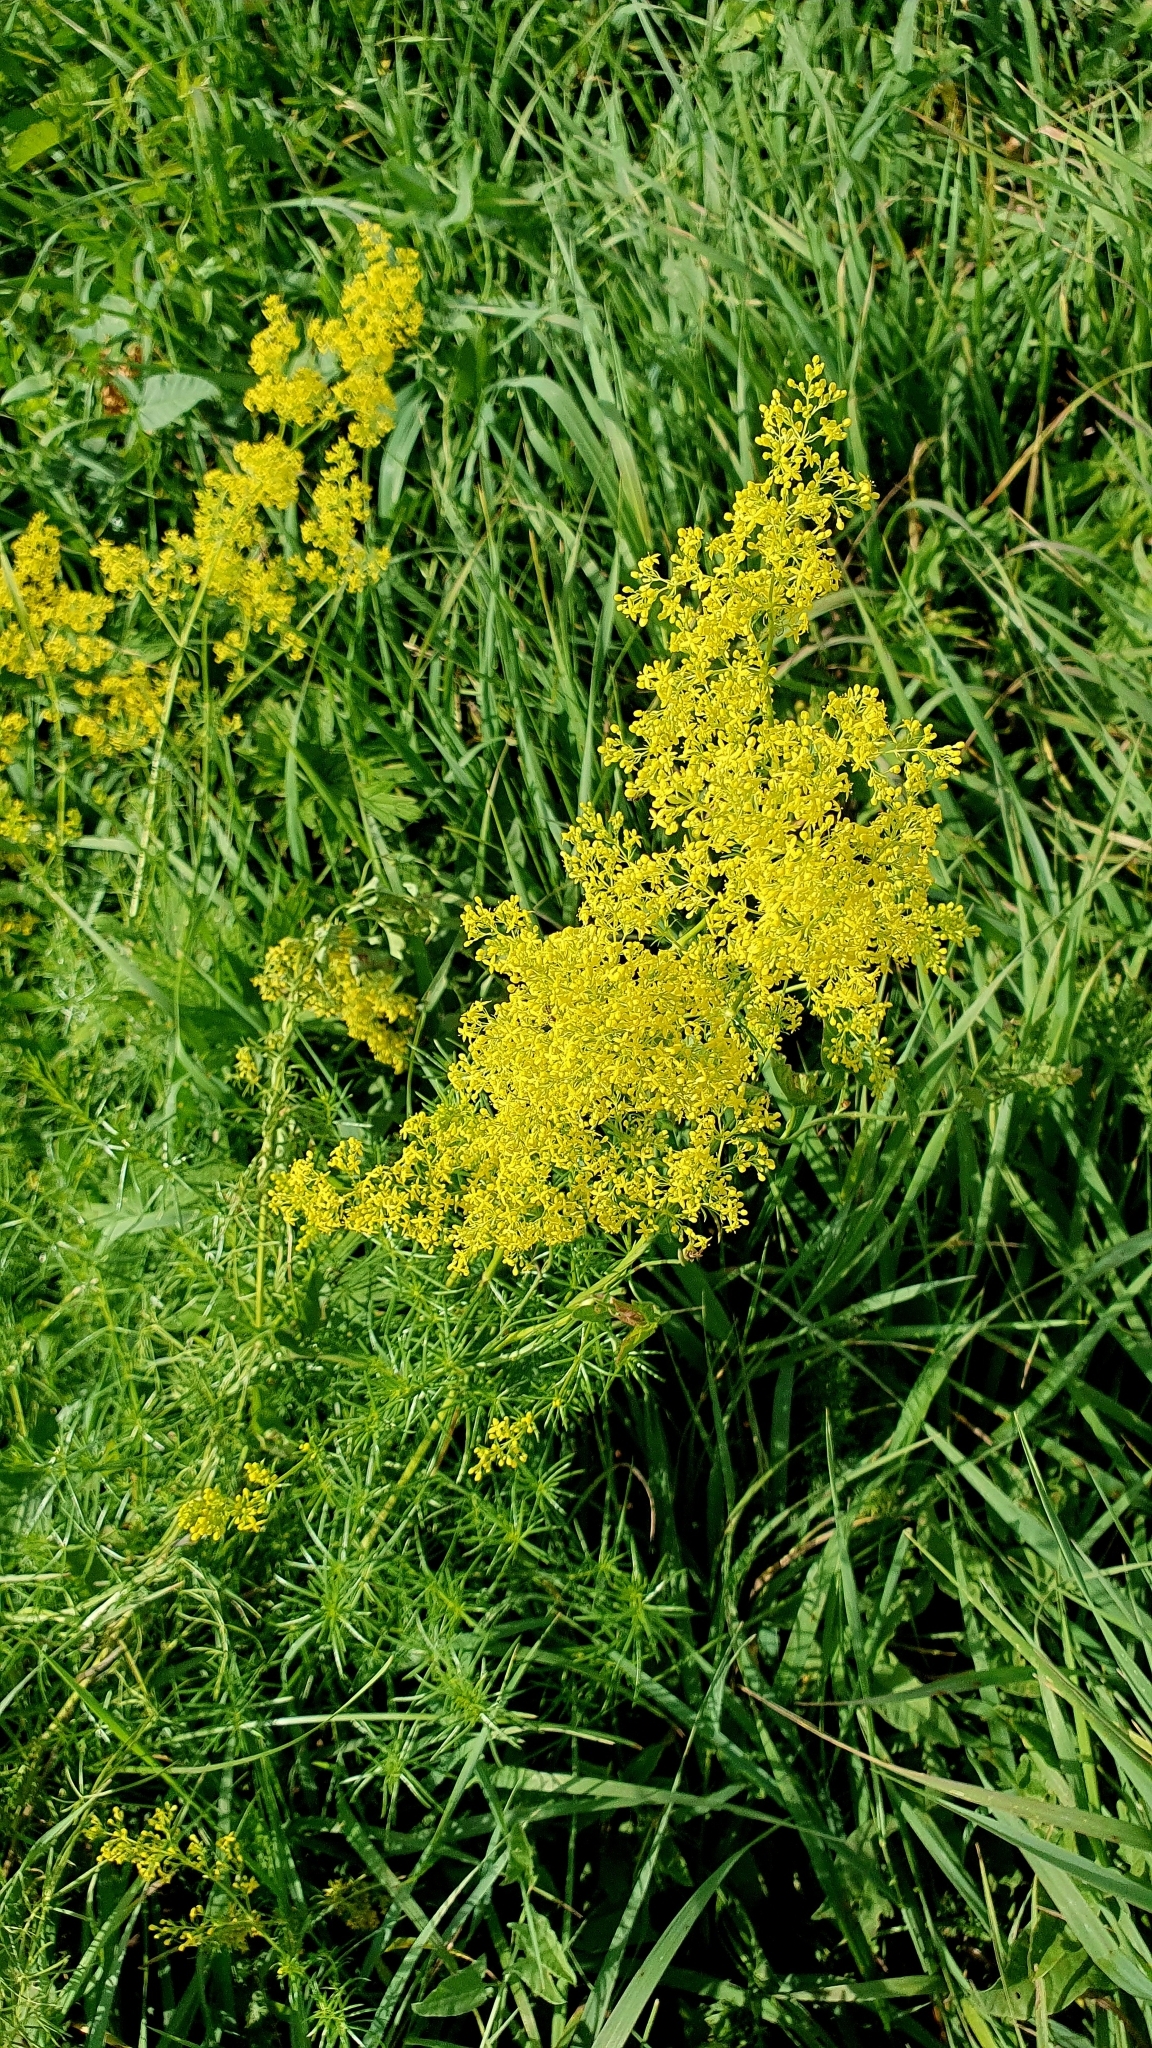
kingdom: Plantae
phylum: Tracheophyta
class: Magnoliopsida
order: Gentianales
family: Rubiaceae
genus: Galium
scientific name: Galium verum
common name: Lady's bedstraw
